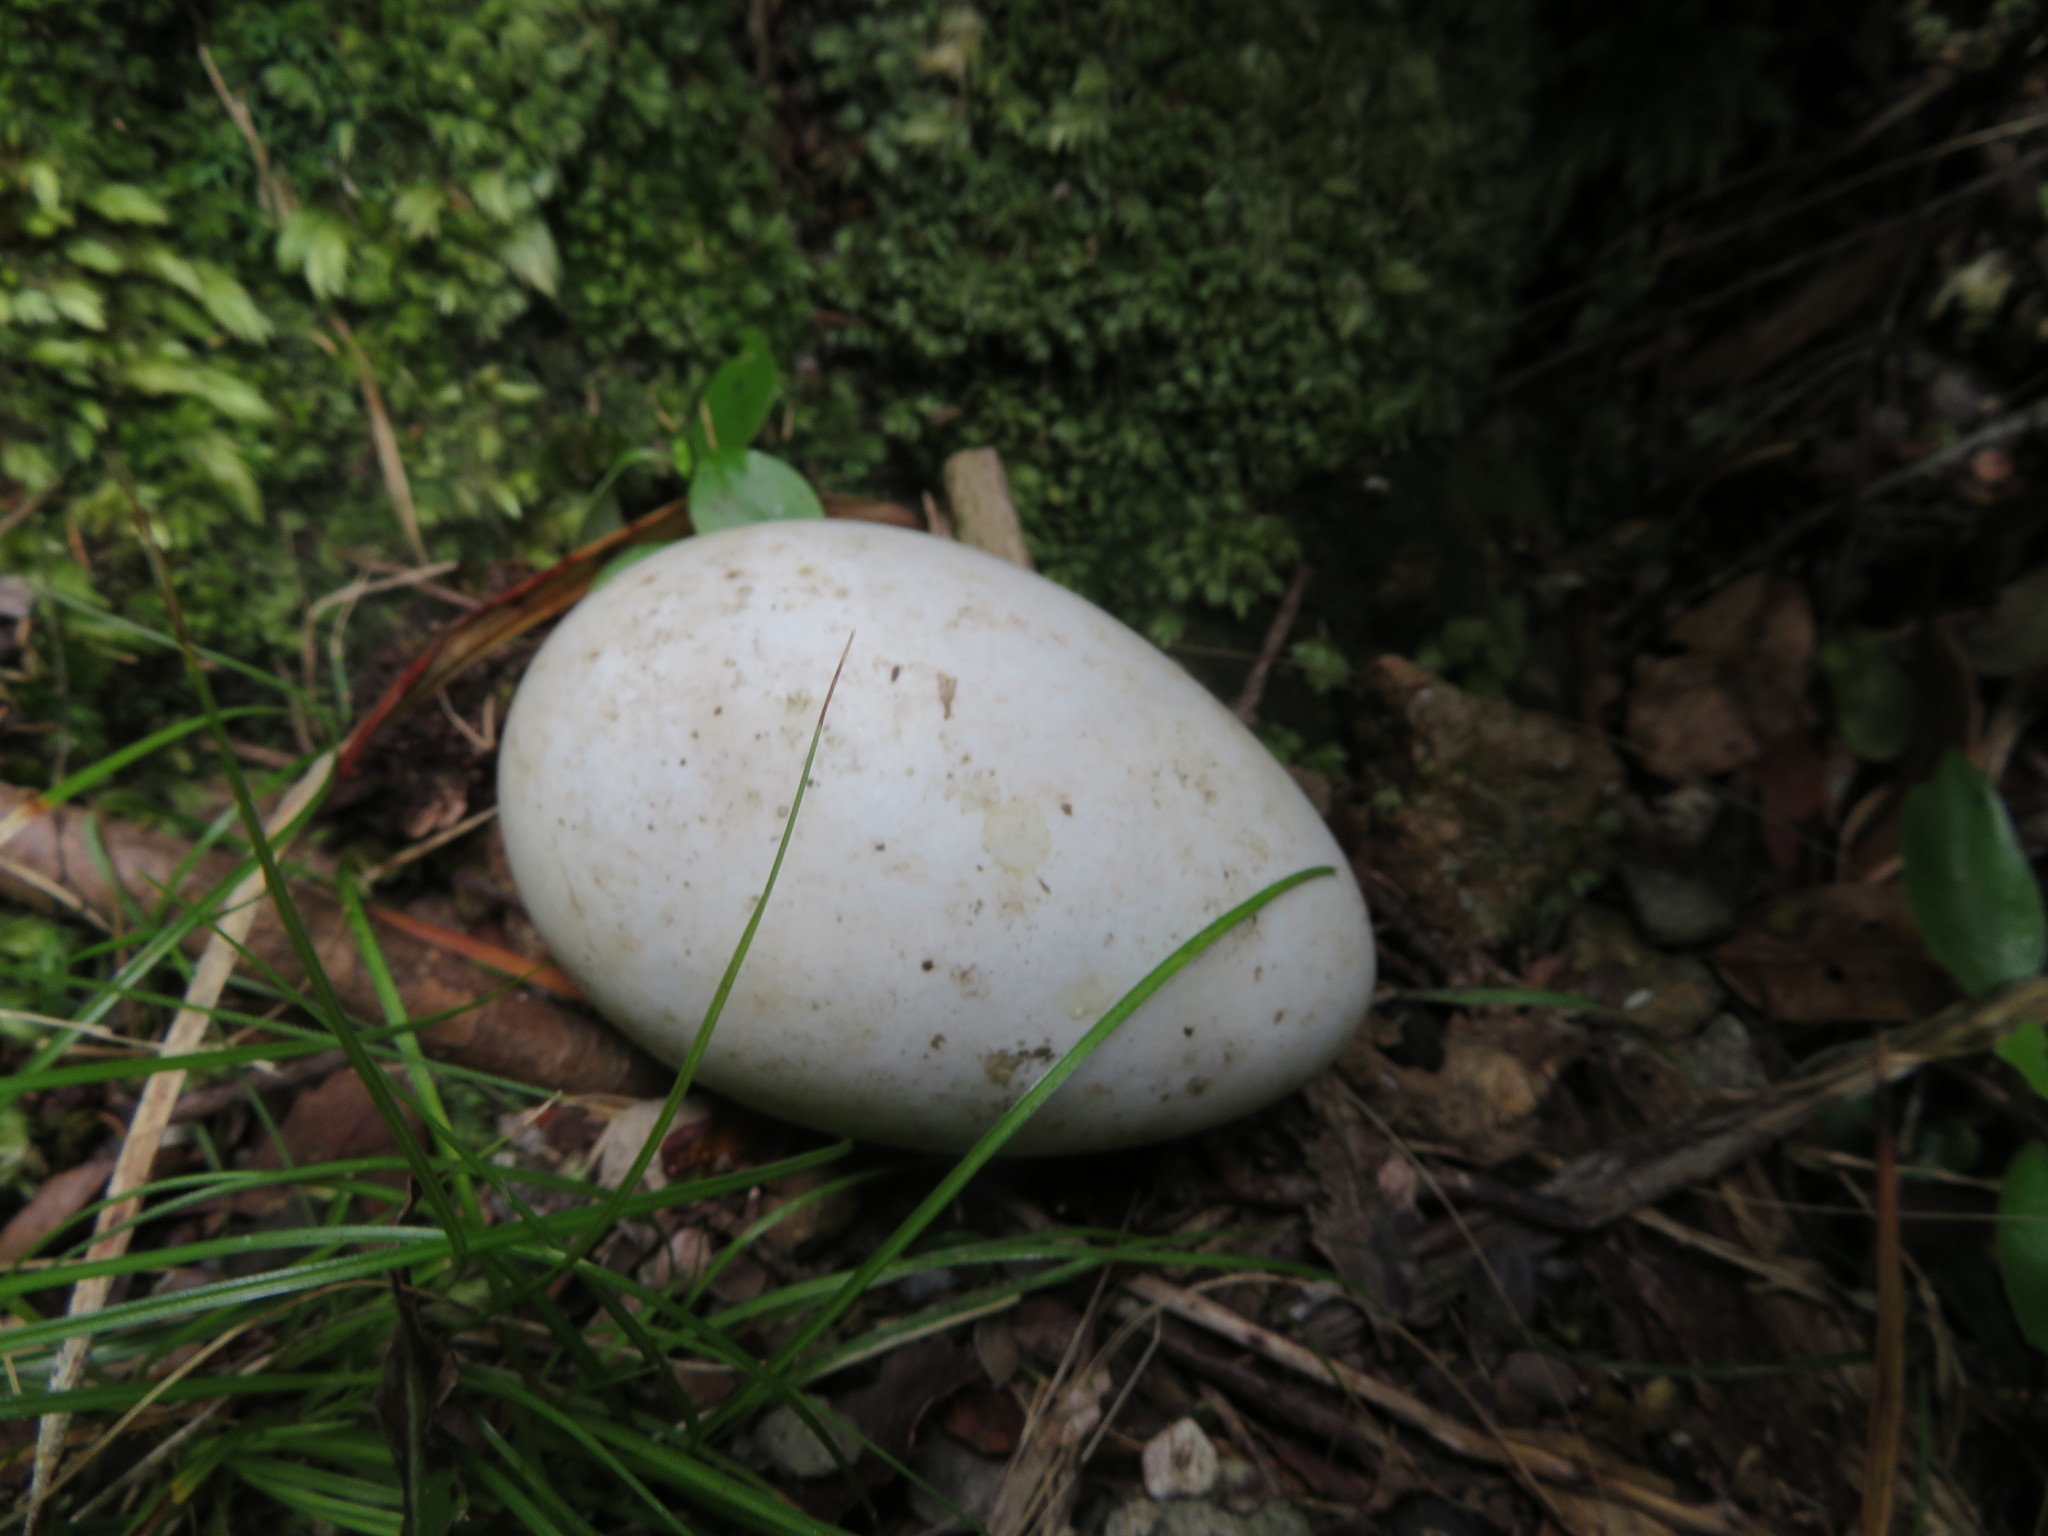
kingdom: Animalia
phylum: Chordata
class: Aves
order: Procellariiformes
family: Procellariidae
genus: Procellaria
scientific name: Procellaria parkinsoni
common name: Black petrel
